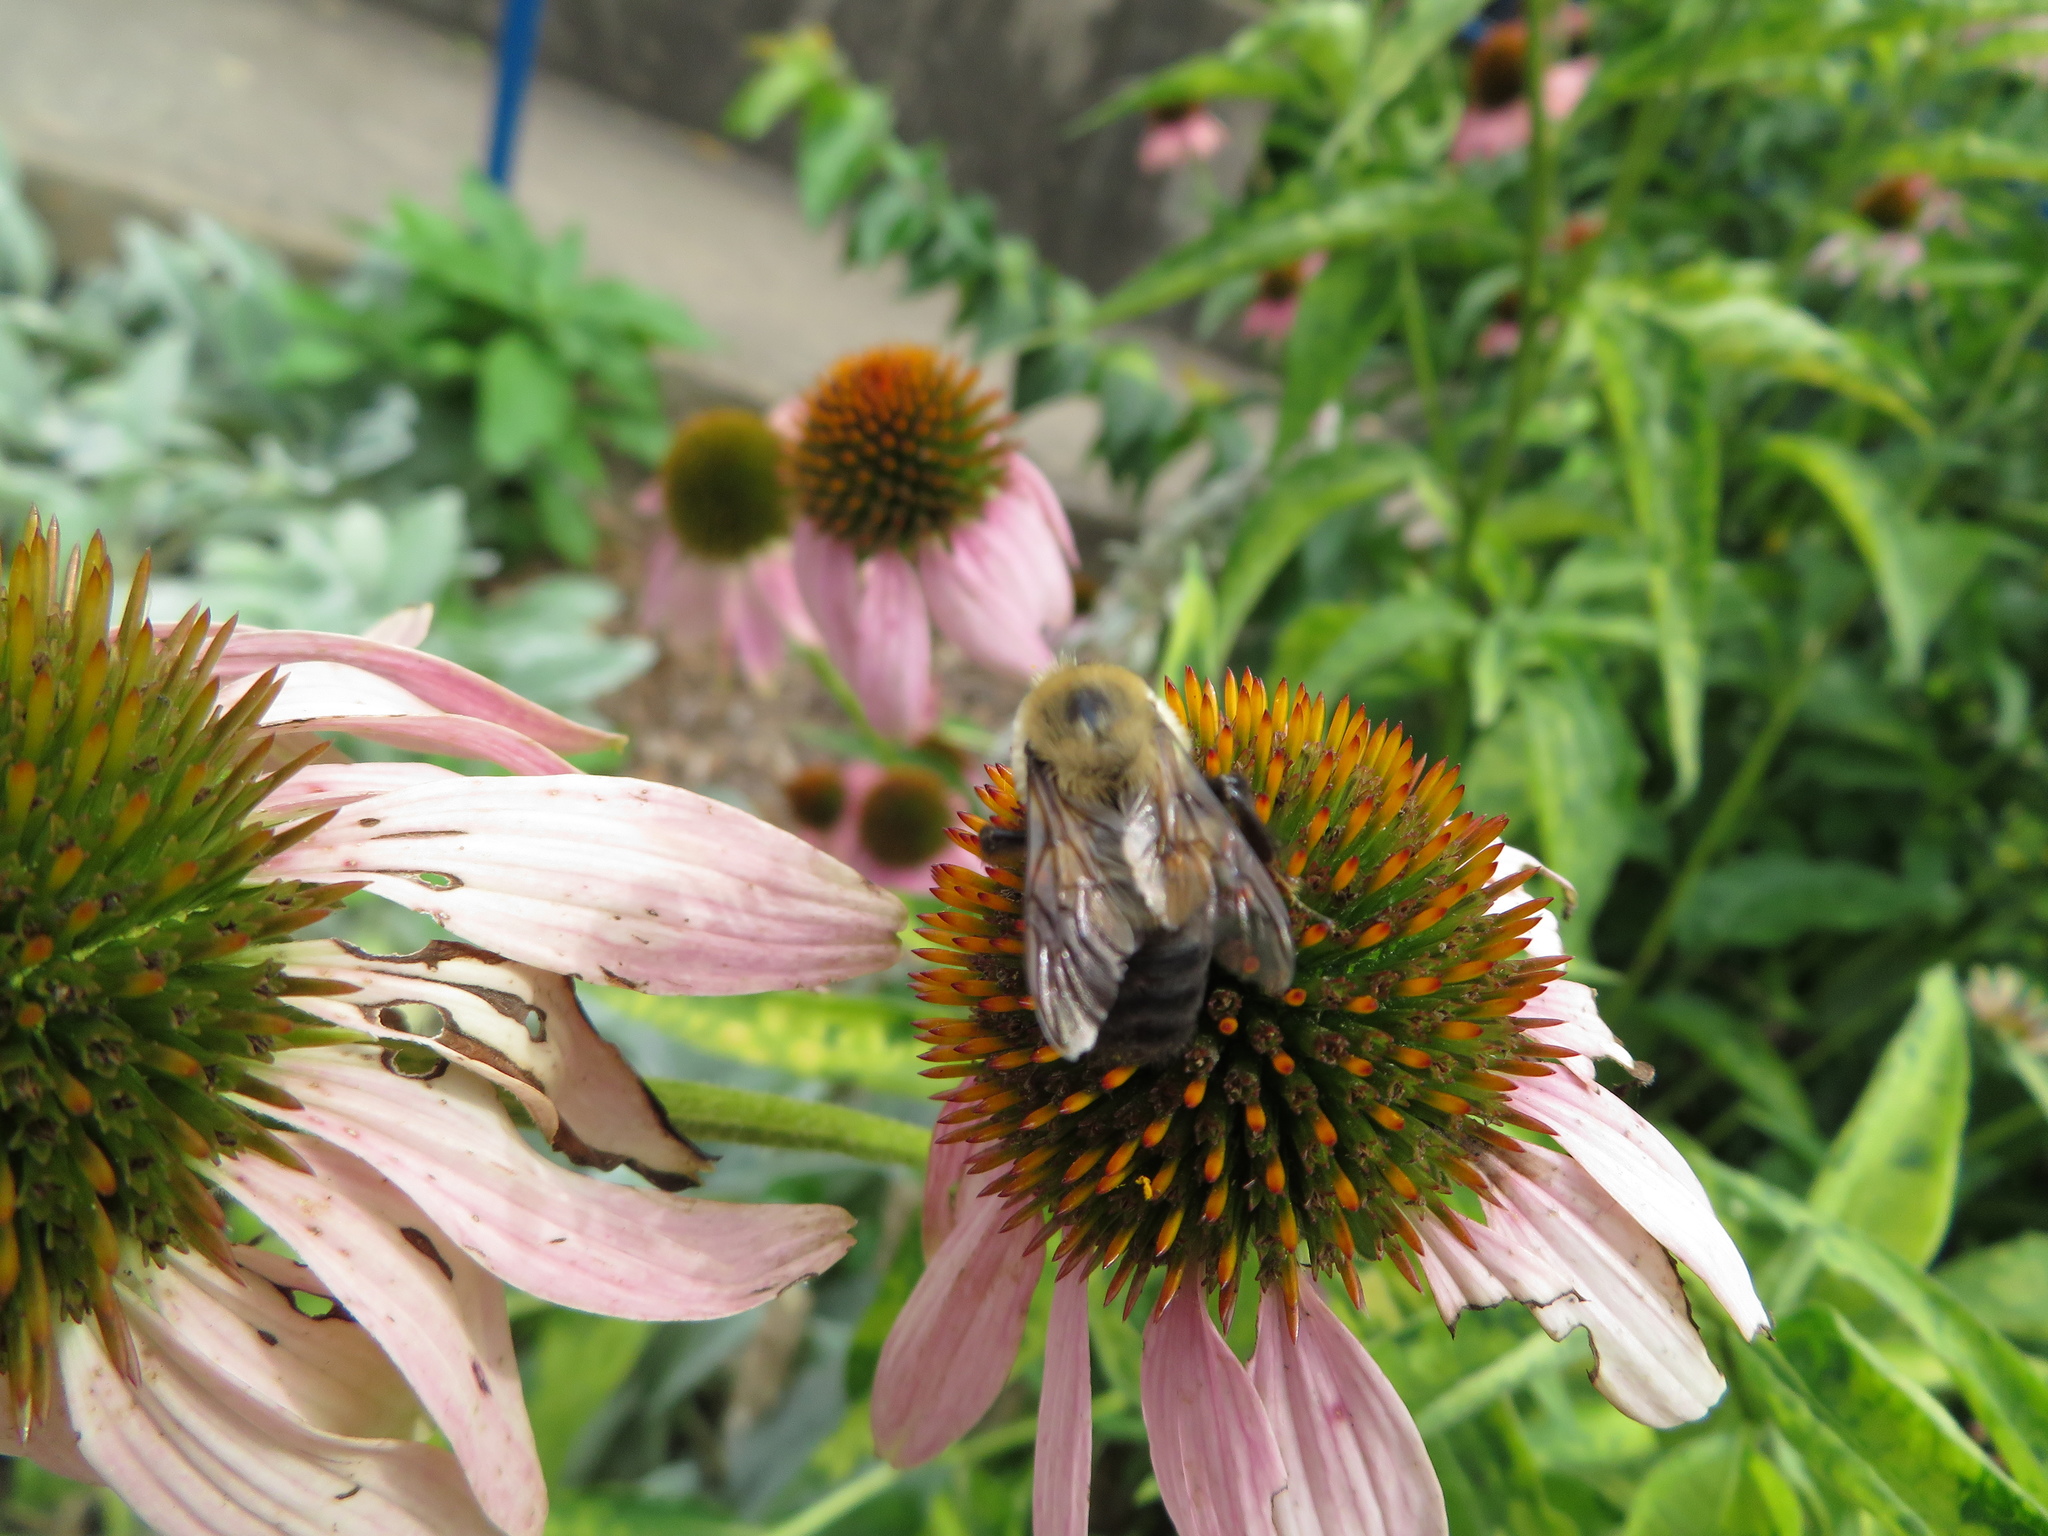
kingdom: Animalia
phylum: Arthropoda
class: Insecta
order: Hymenoptera
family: Apidae
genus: Bombus
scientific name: Bombus griseocollis
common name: Brown-belted bumble bee
